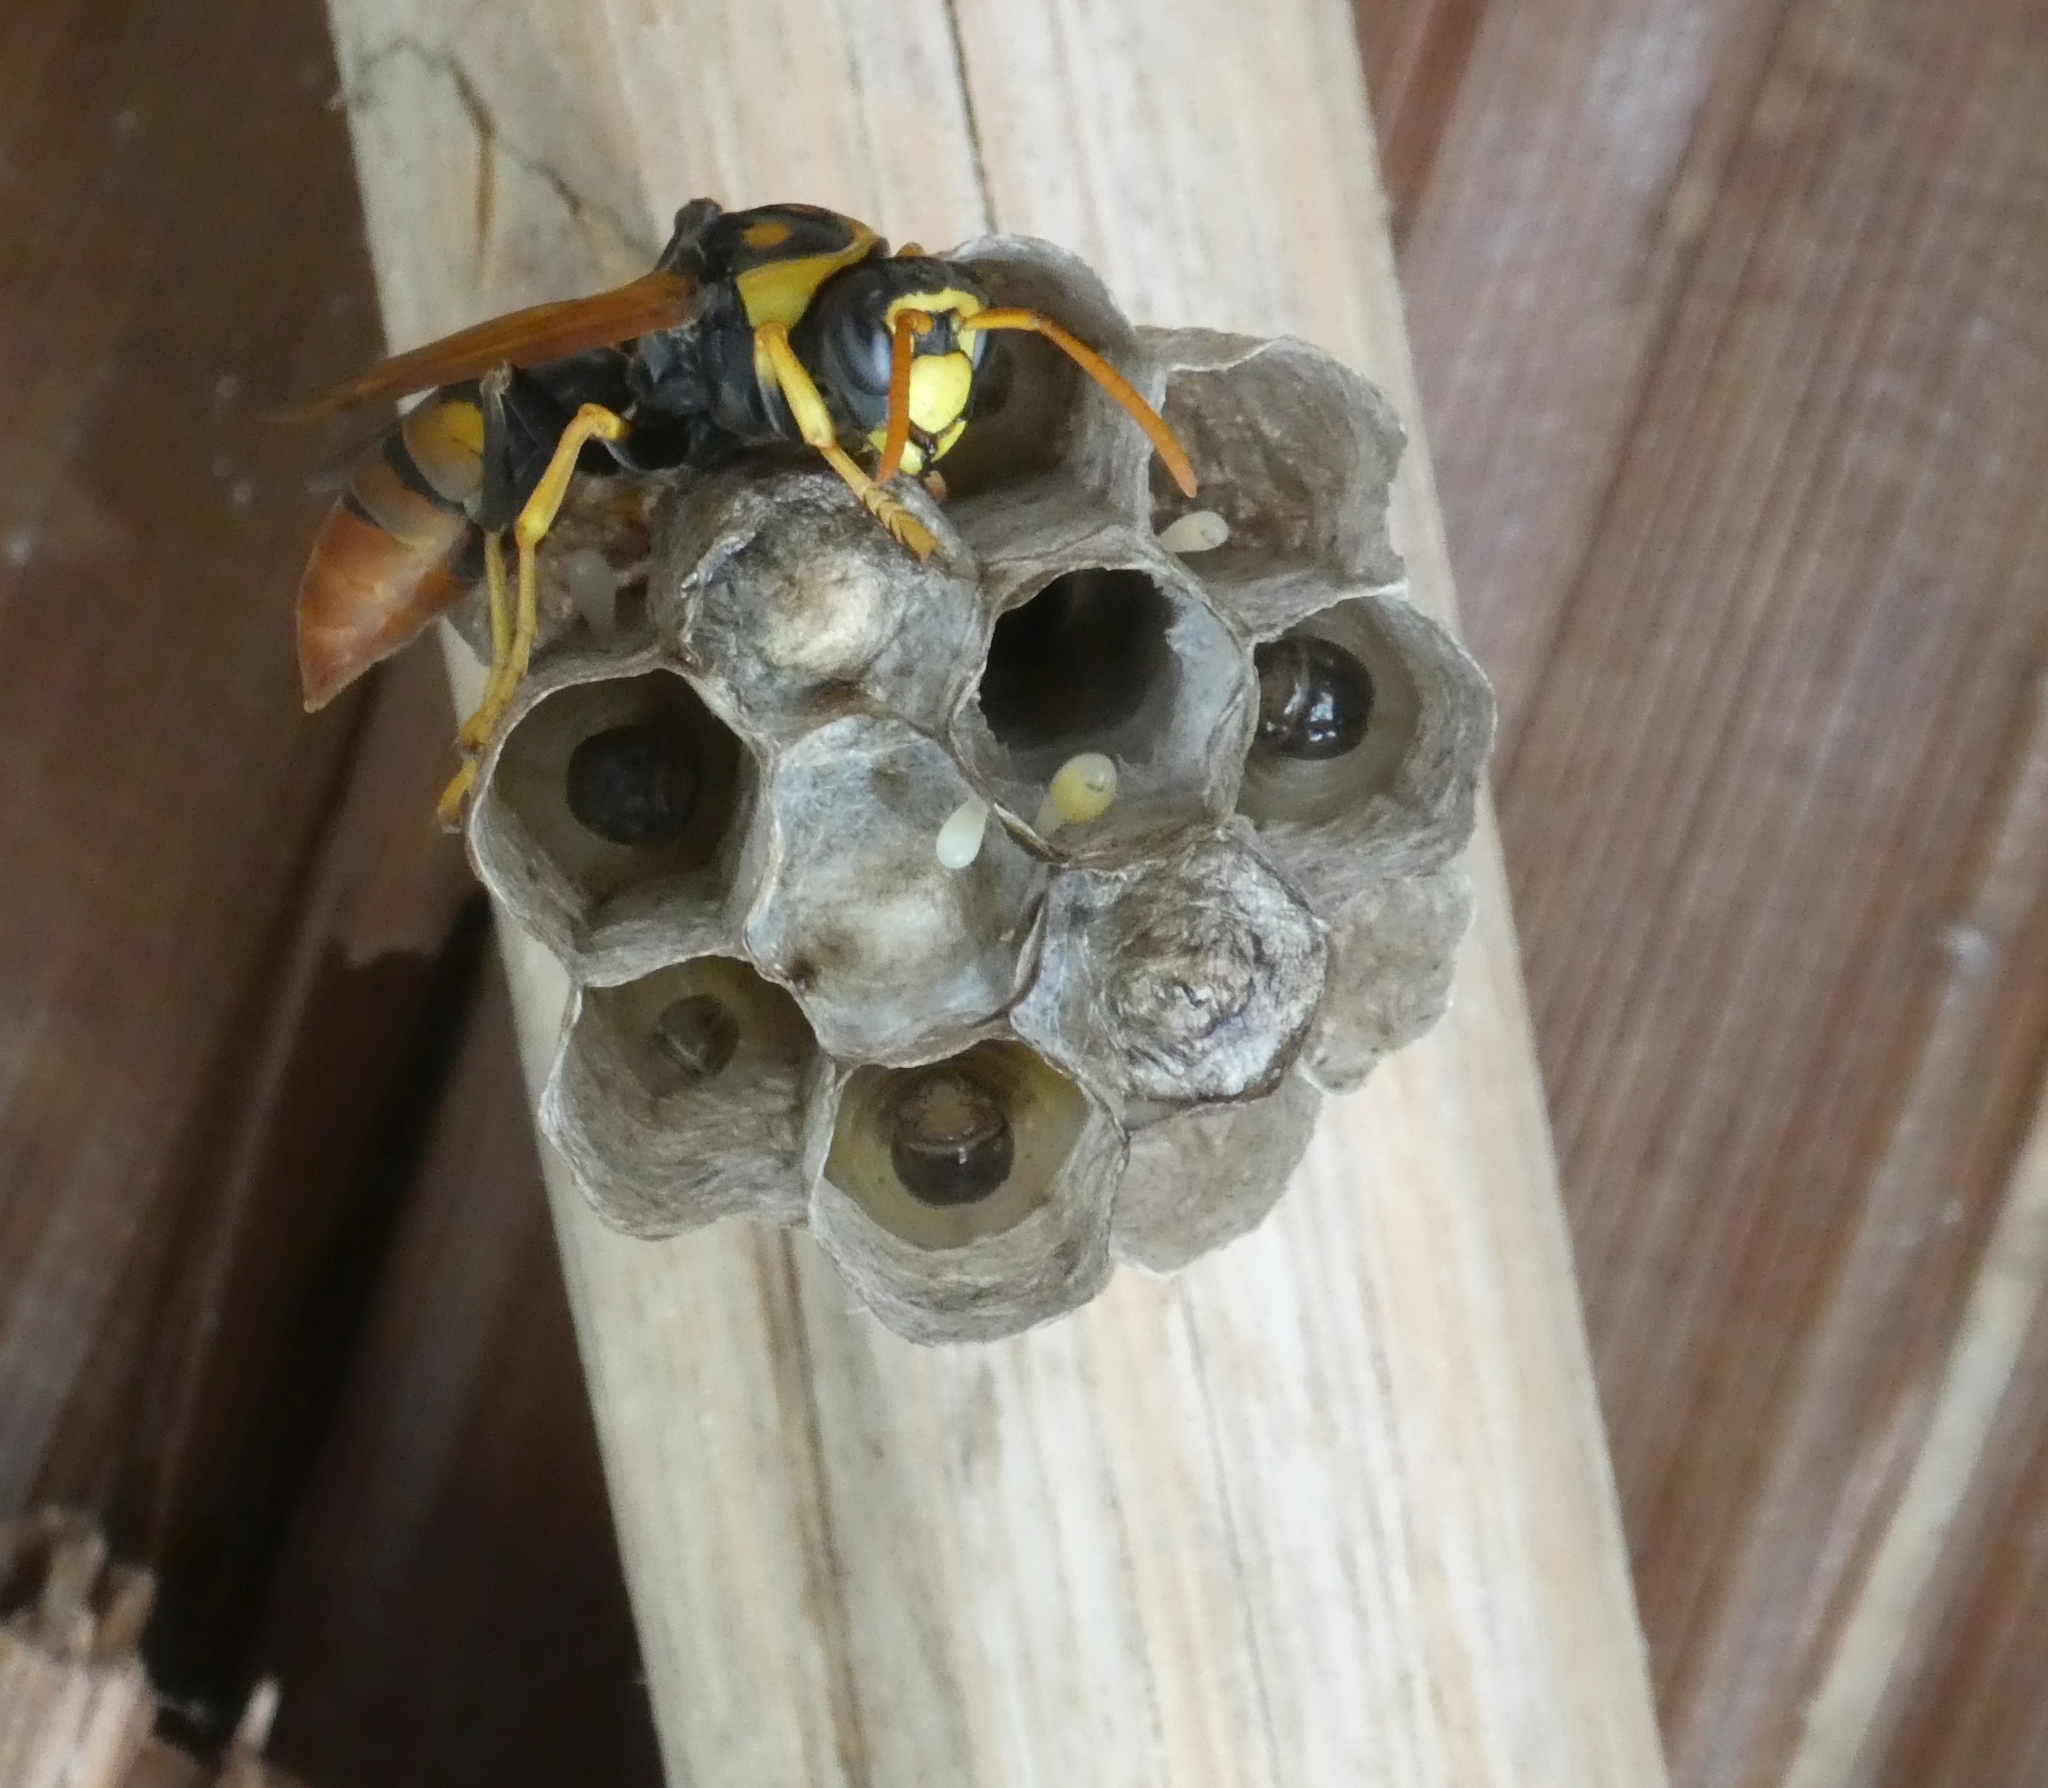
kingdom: Animalia
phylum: Arthropoda
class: Insecta
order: Hymenoptera
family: Eumenidae
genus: Polistes
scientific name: Polistes tepidus
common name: Paper wasp
